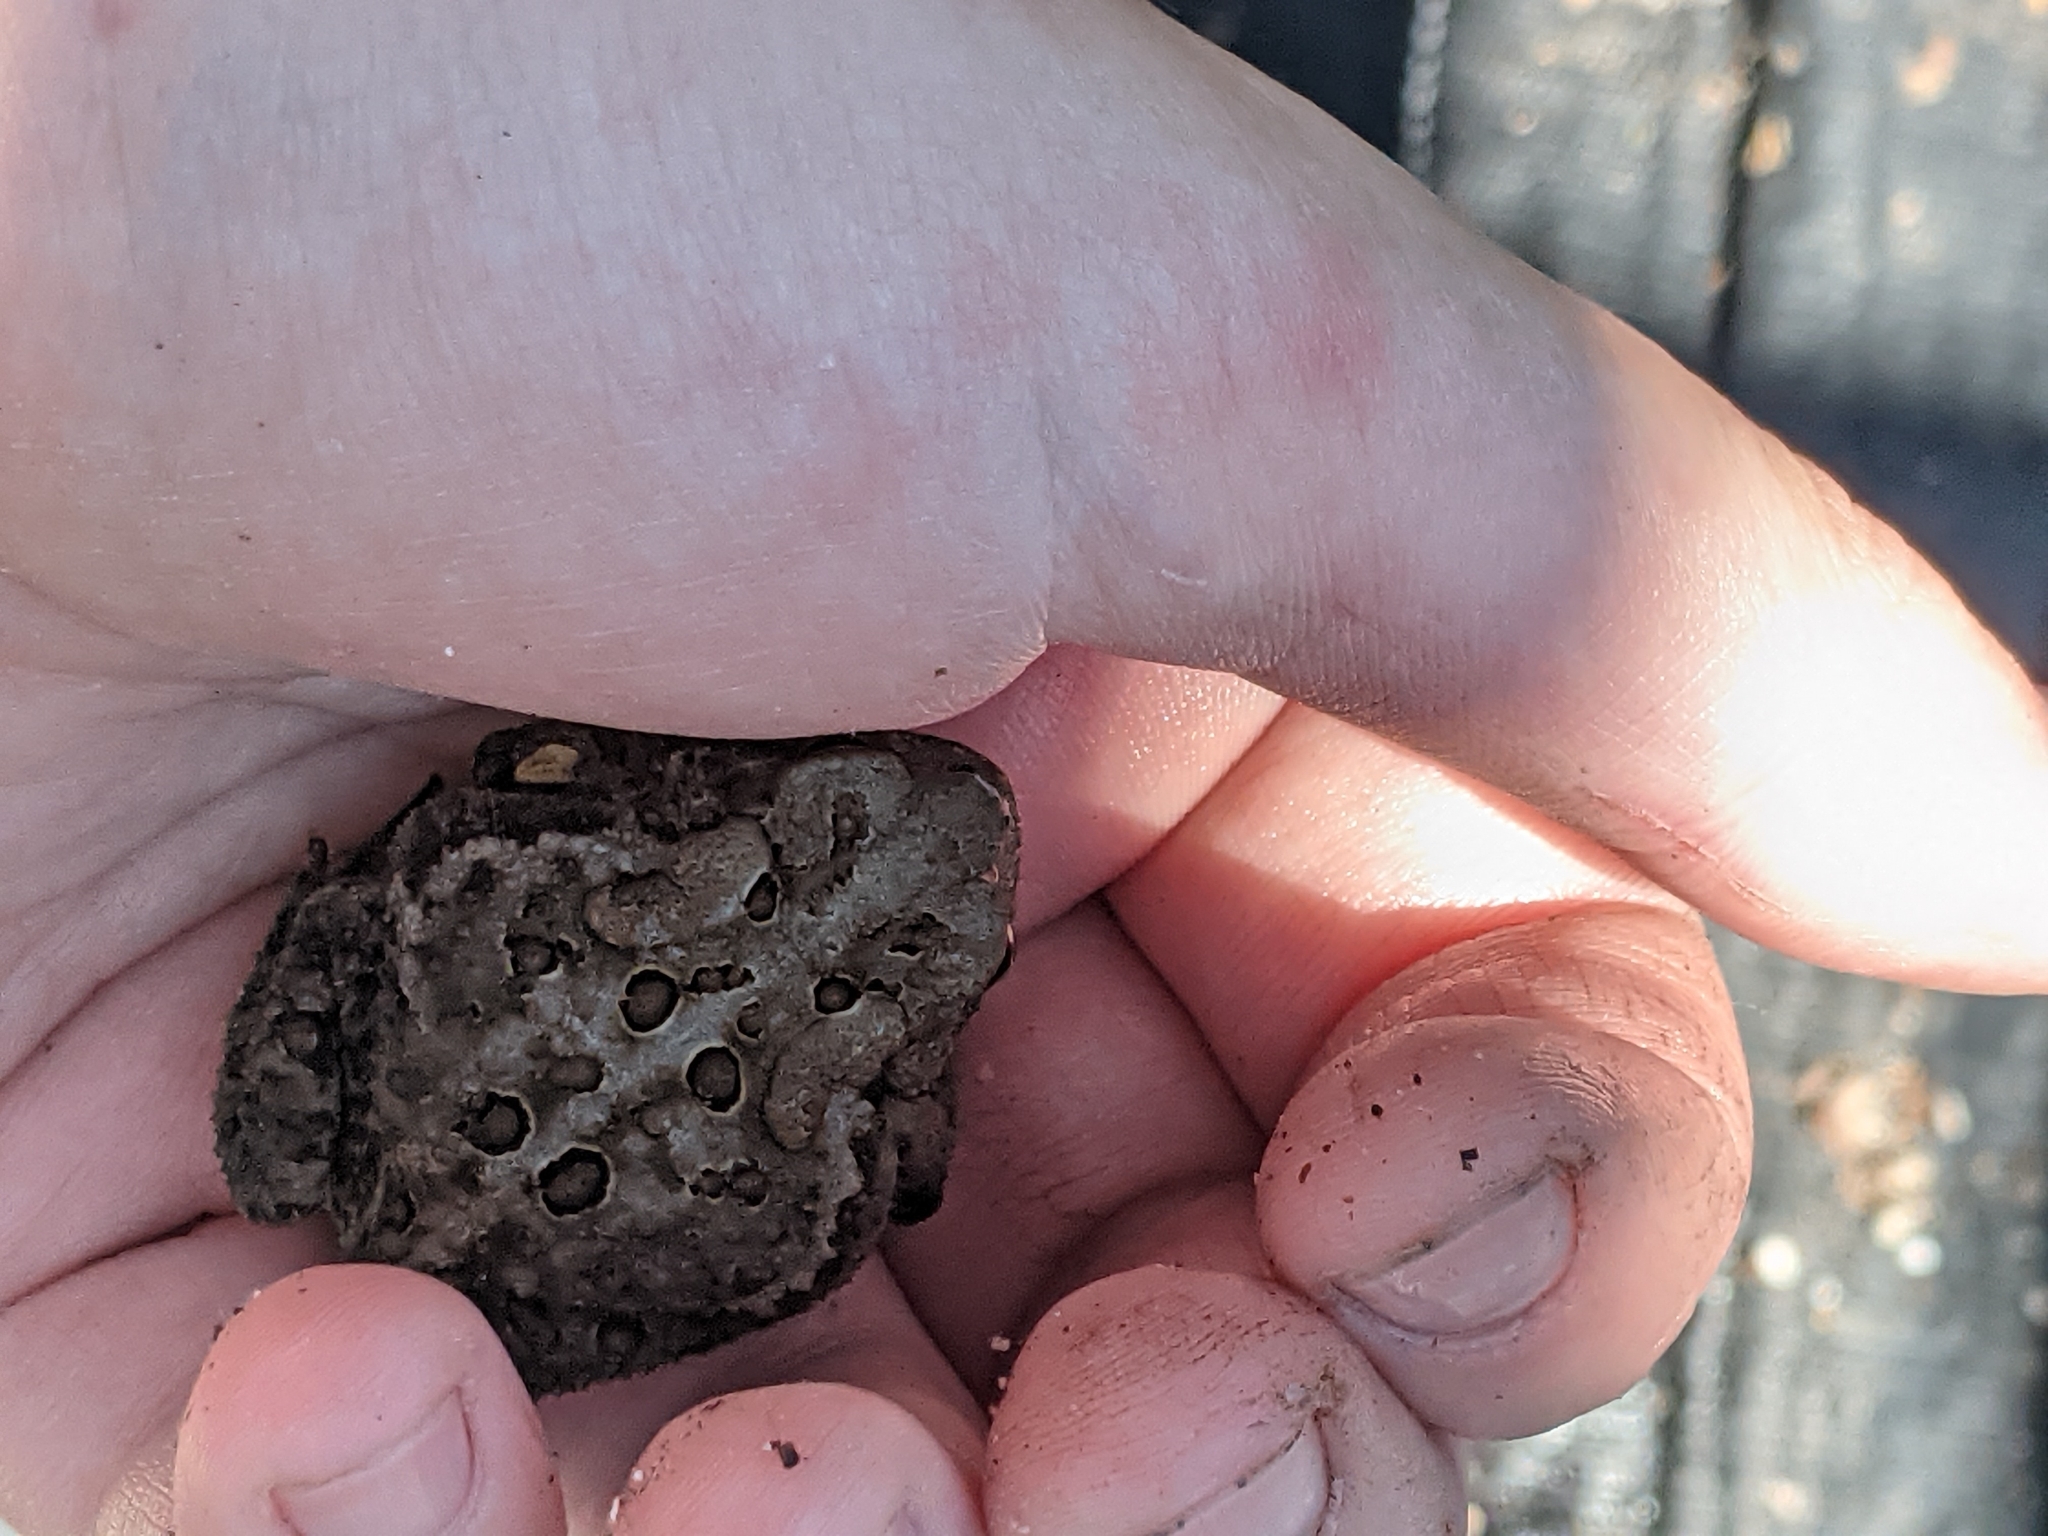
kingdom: Animalia
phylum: Chordata
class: Amphibia
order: Anura
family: Bufonidae
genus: Anaxyrus
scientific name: Anaxyrus americanus
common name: American toad
